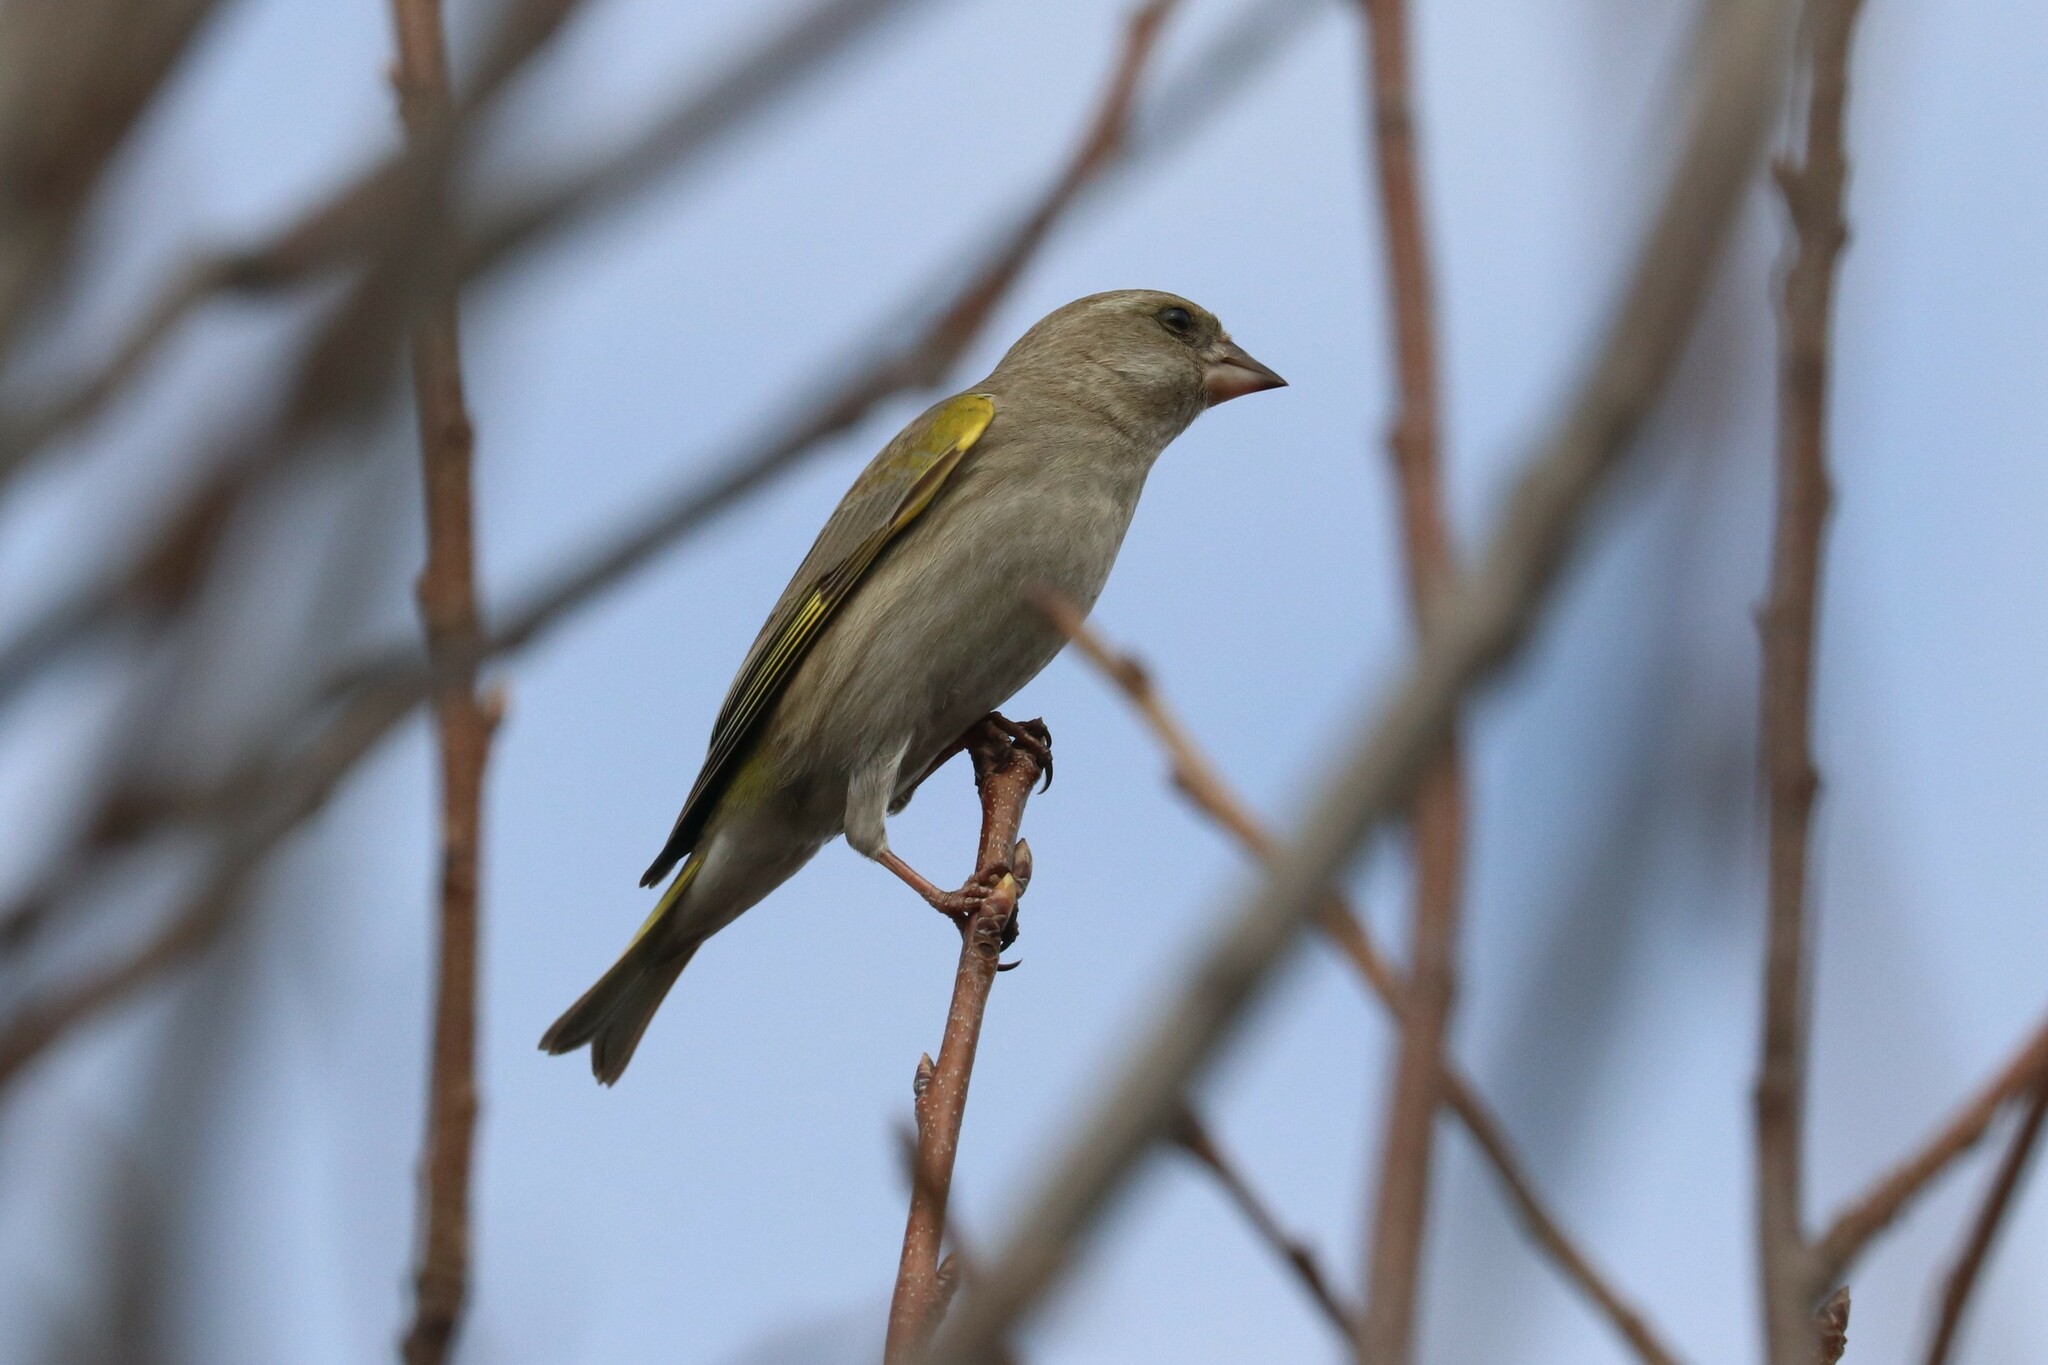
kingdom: Plantae
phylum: Tracheophyta
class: Liliopsida
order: Poales
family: Poaceae
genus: Chloris
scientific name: Chloris chloris
